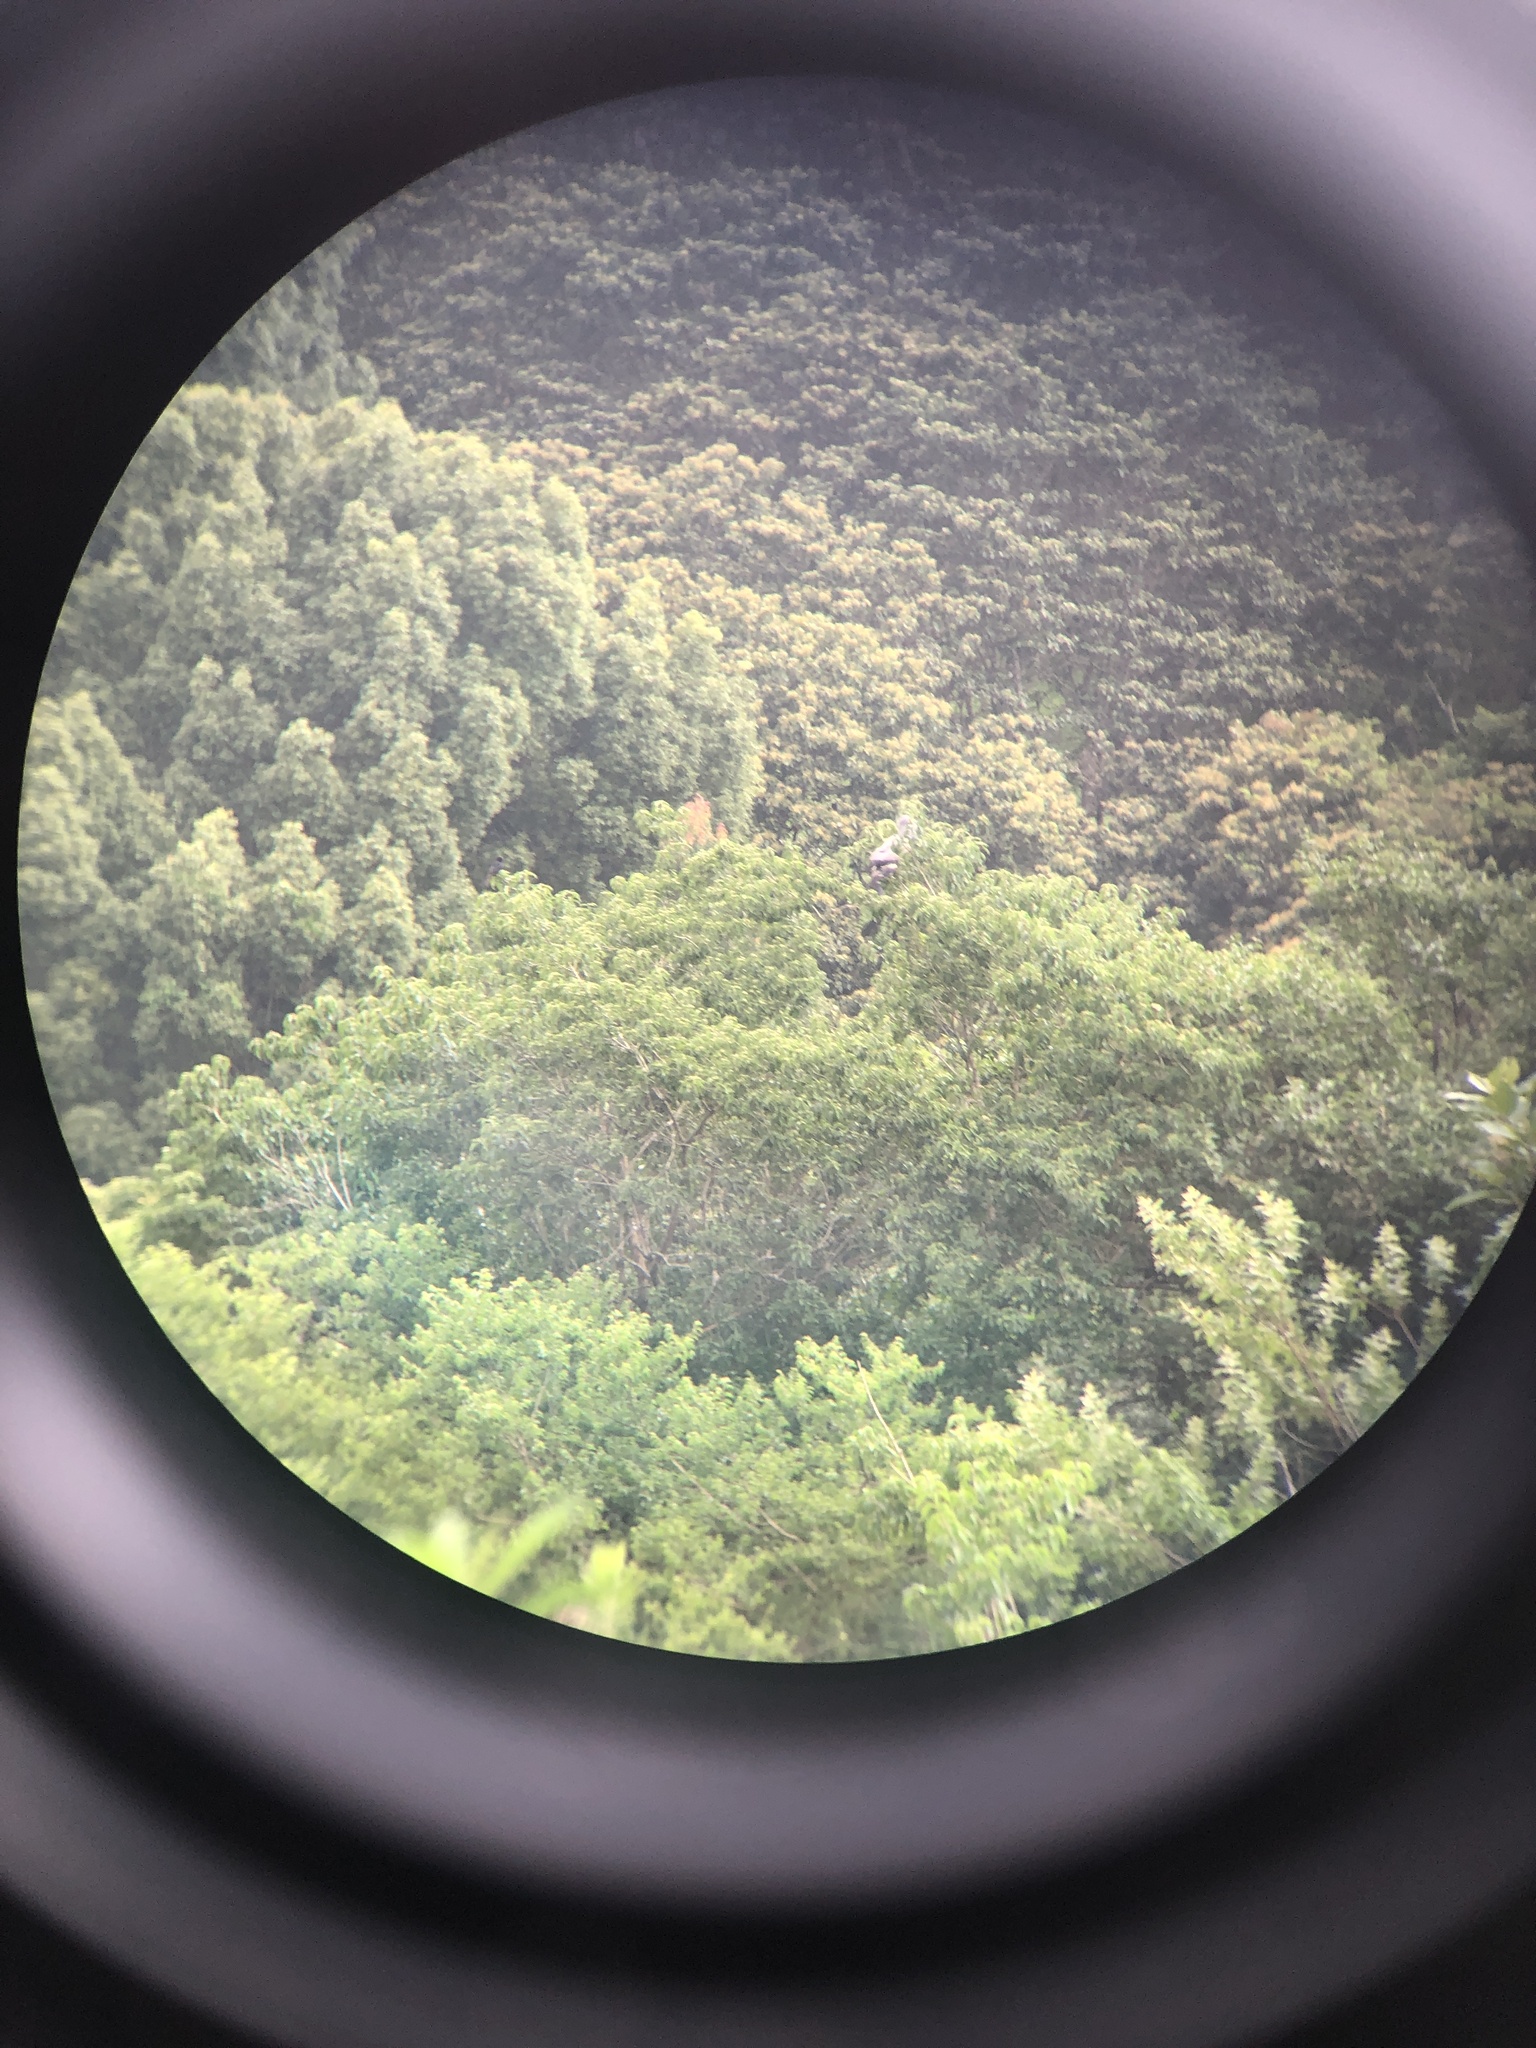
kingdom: Animalia
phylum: Chordata
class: Aves
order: Accipitriformes
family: Accipitridae
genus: Polyboroides
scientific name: Polyboroides typus
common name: African harrier-hawk
